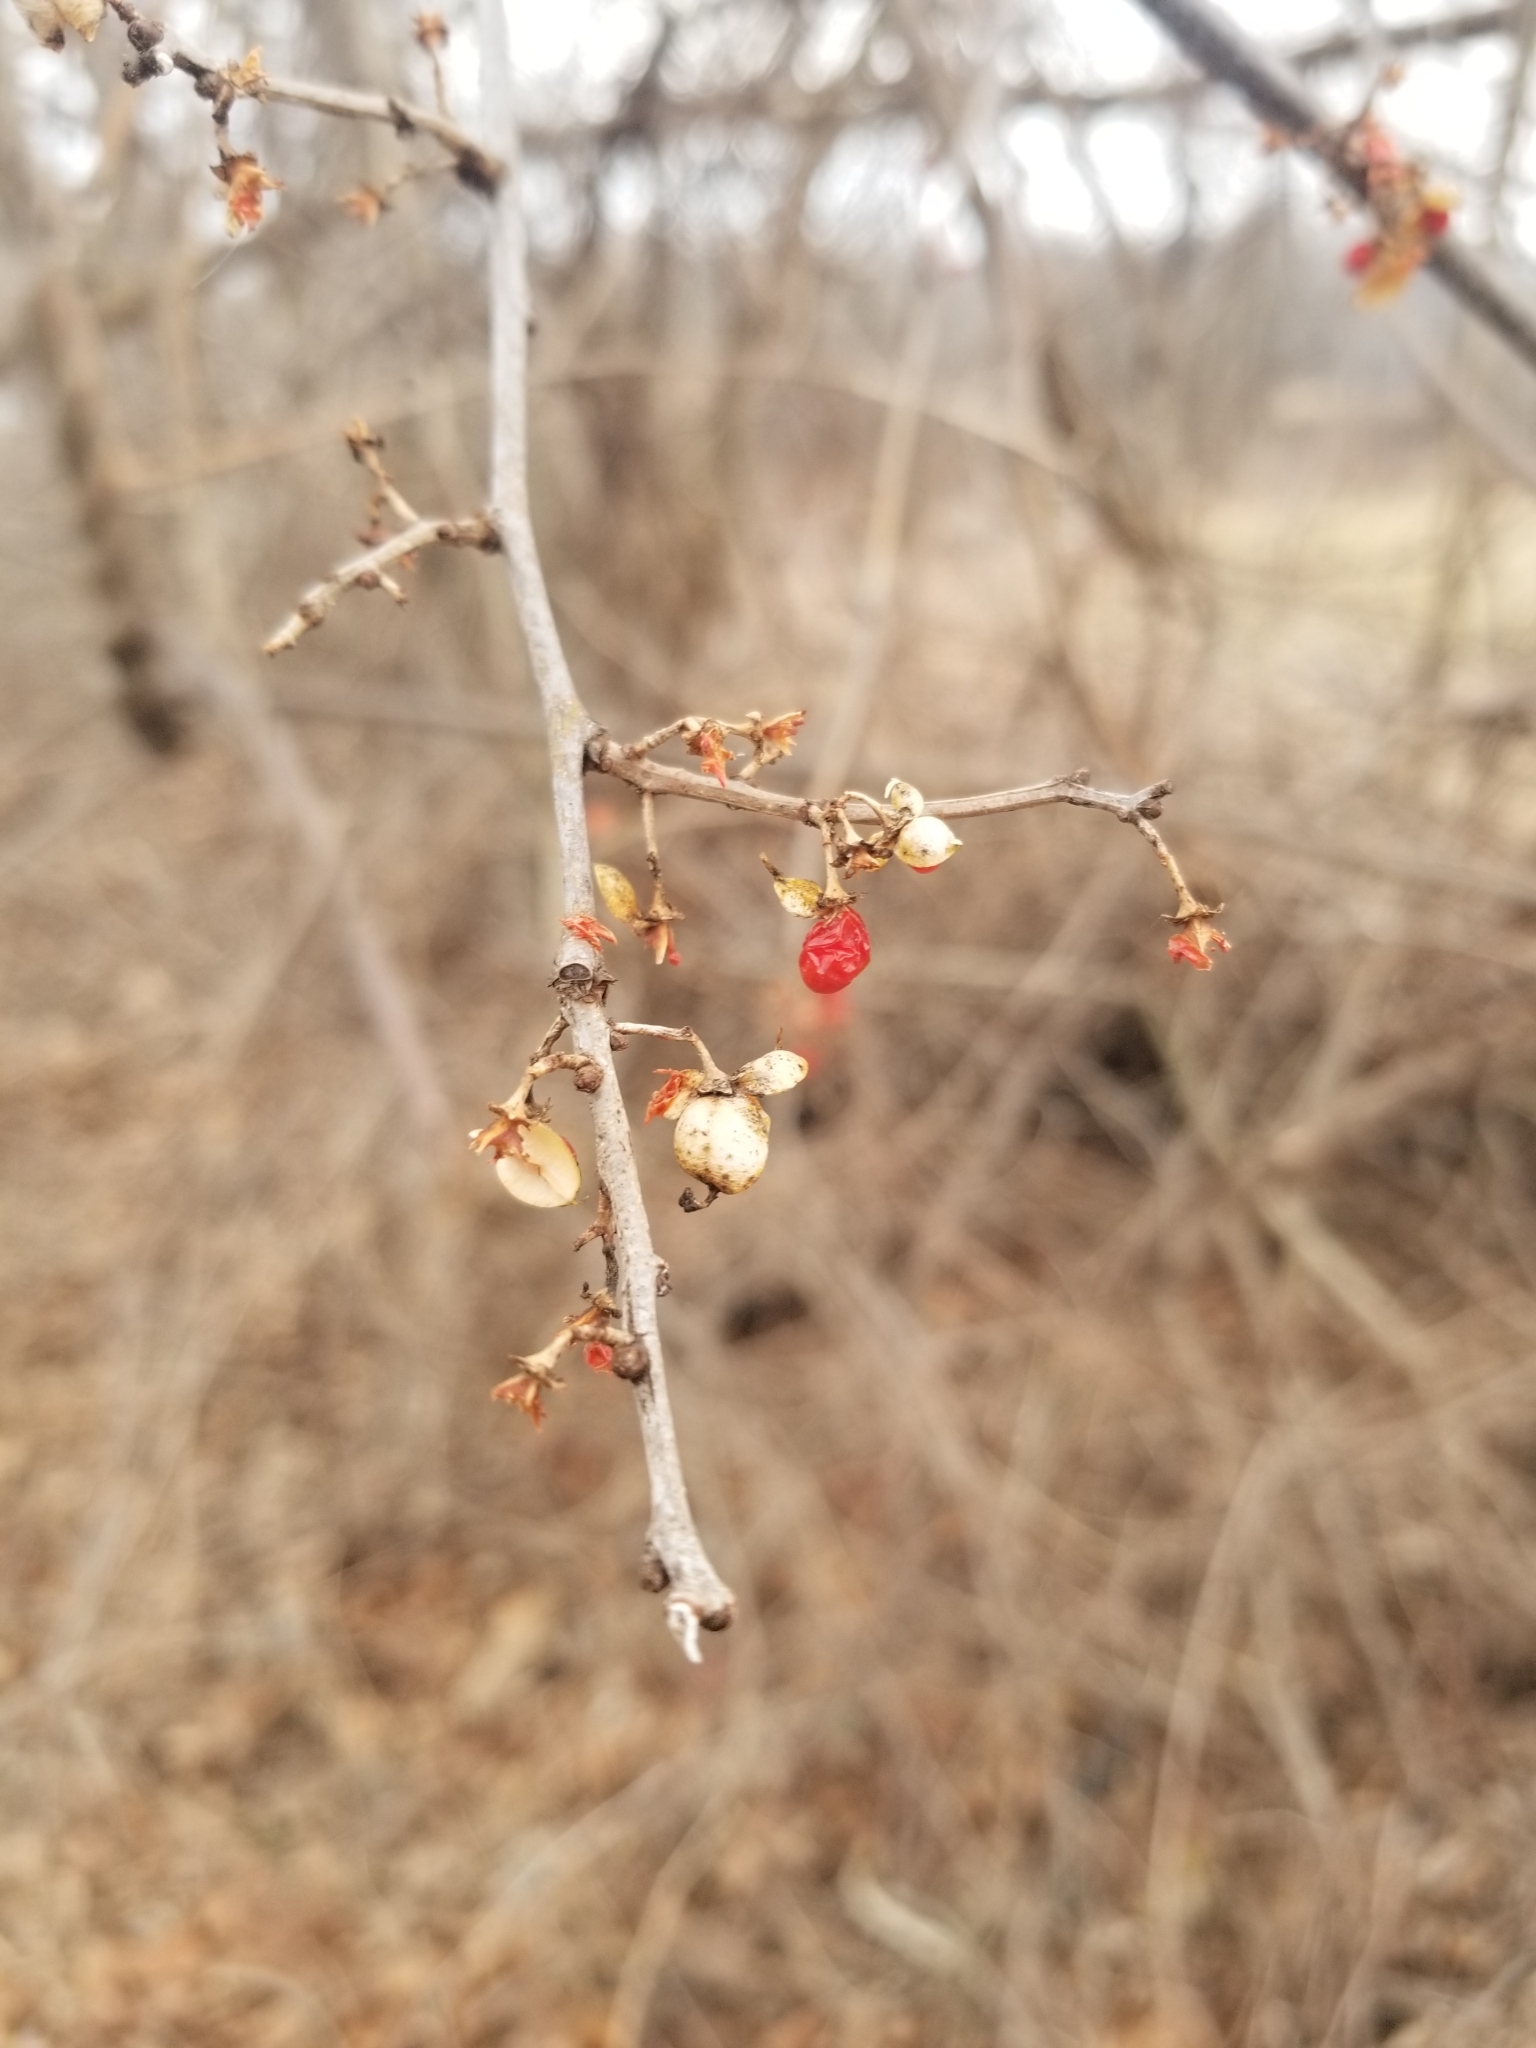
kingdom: Plantae
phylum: Tracheophyta
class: Magnoliopsida
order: Celastrales
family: Celastraceae
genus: Celastrus
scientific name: Celastrus orbiculatus
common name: Oriental bittersweet
